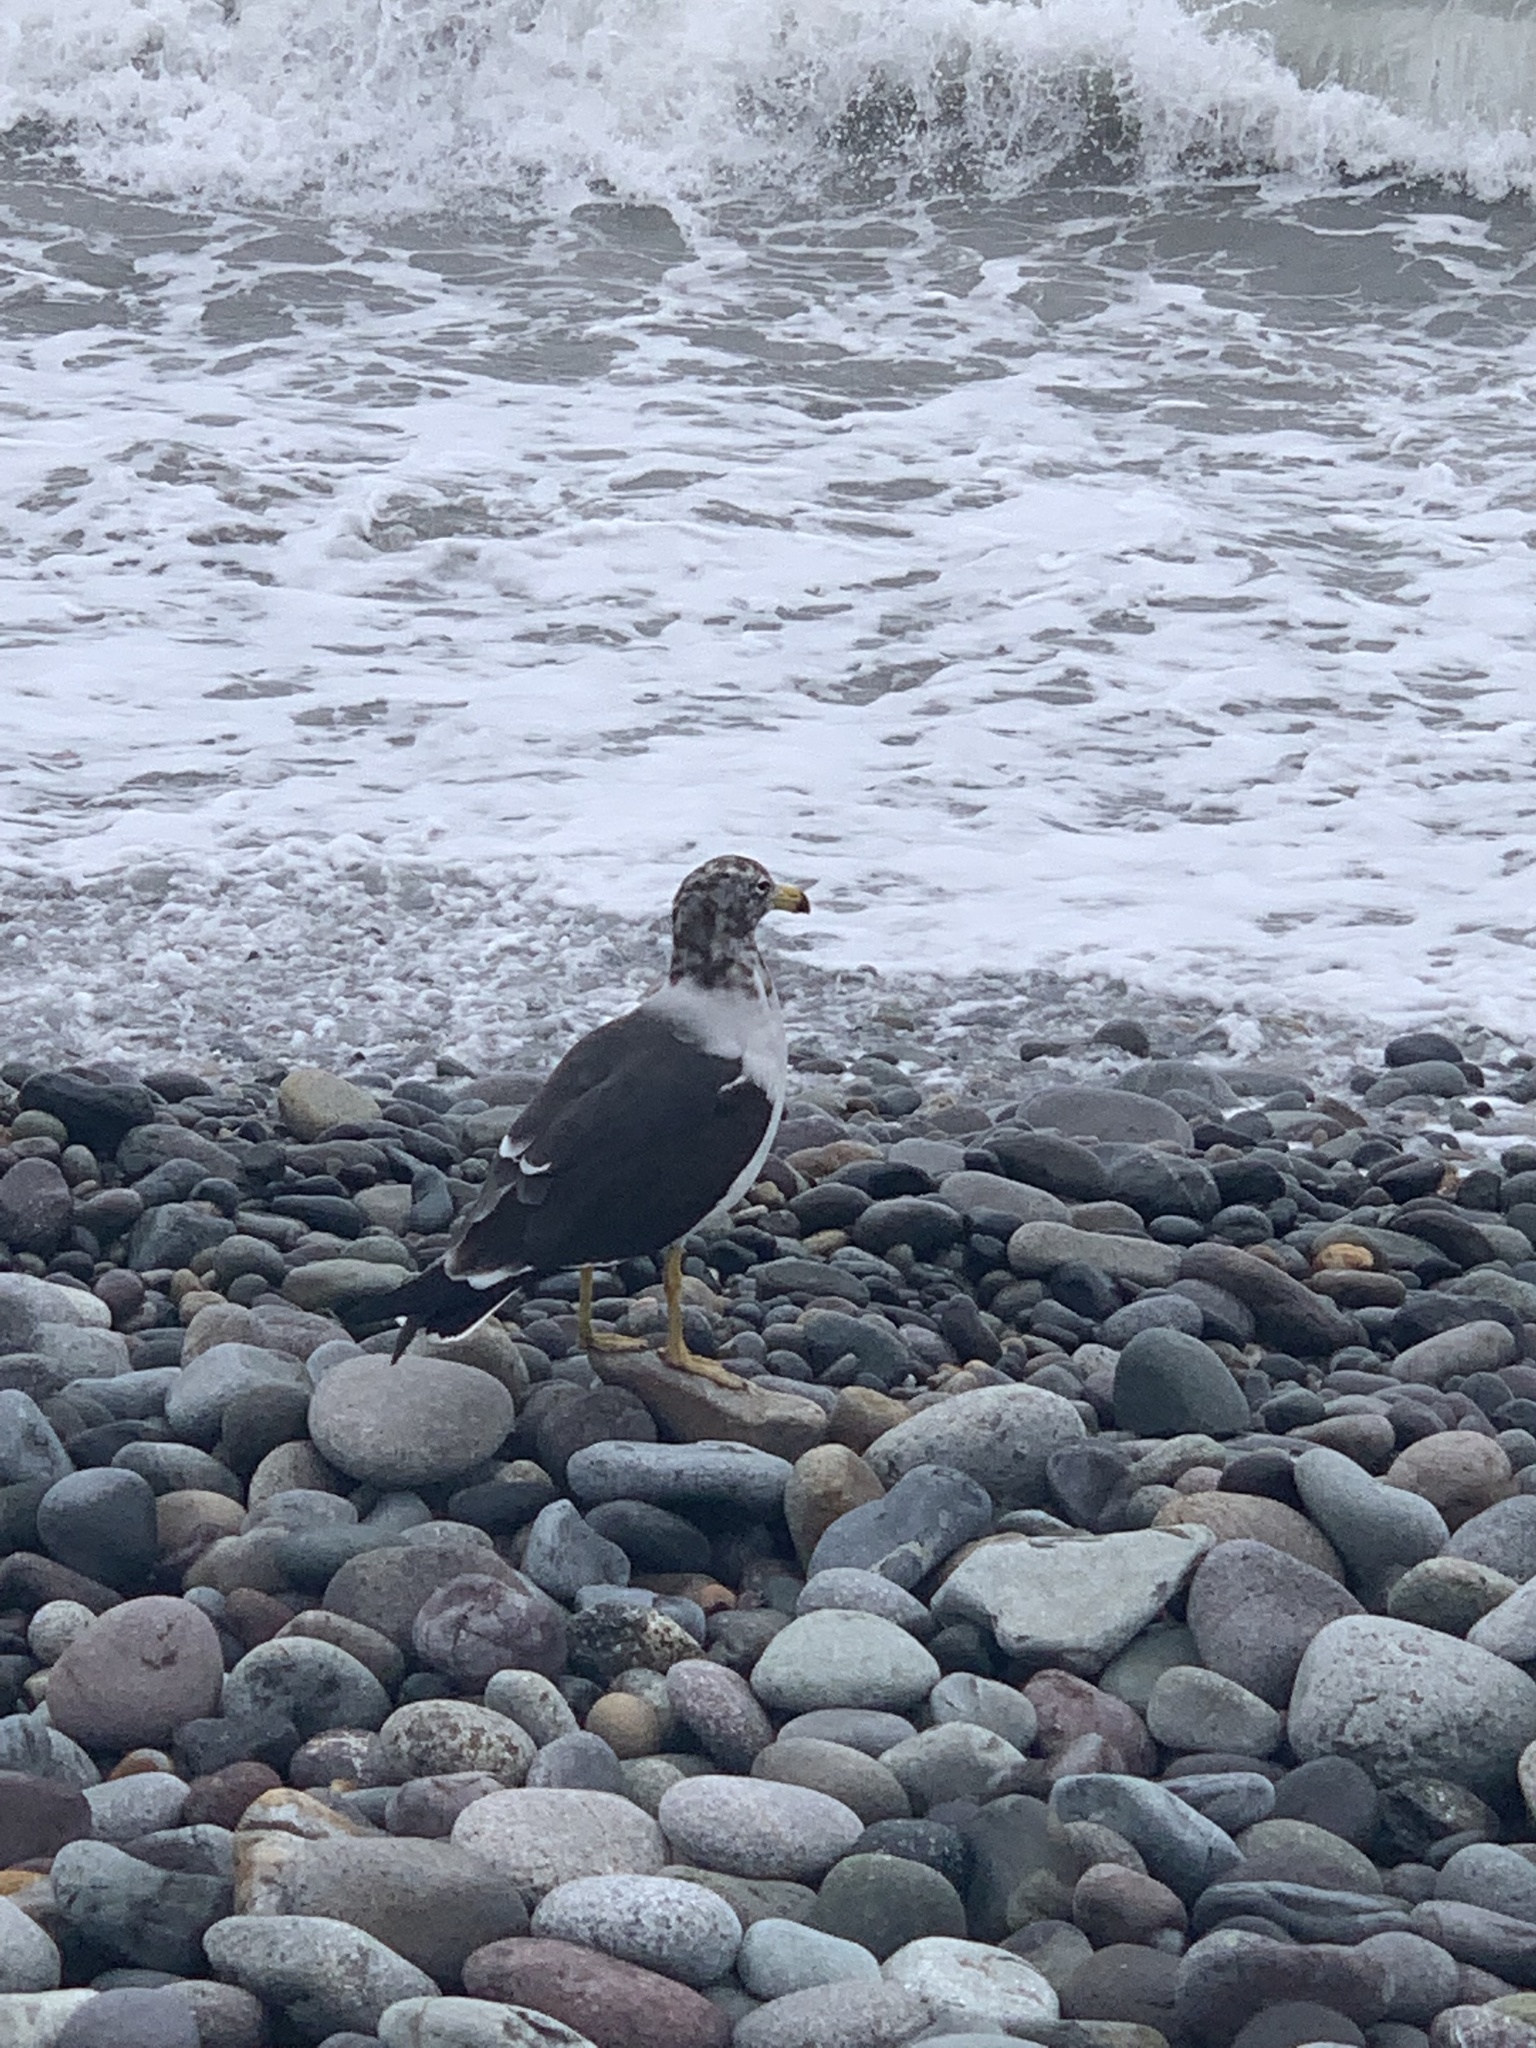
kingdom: Animalia
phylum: Chordata
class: Aves
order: Charadriiformes
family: Laridae
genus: Larus
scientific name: Larus belcheri
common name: Belcher's gull
